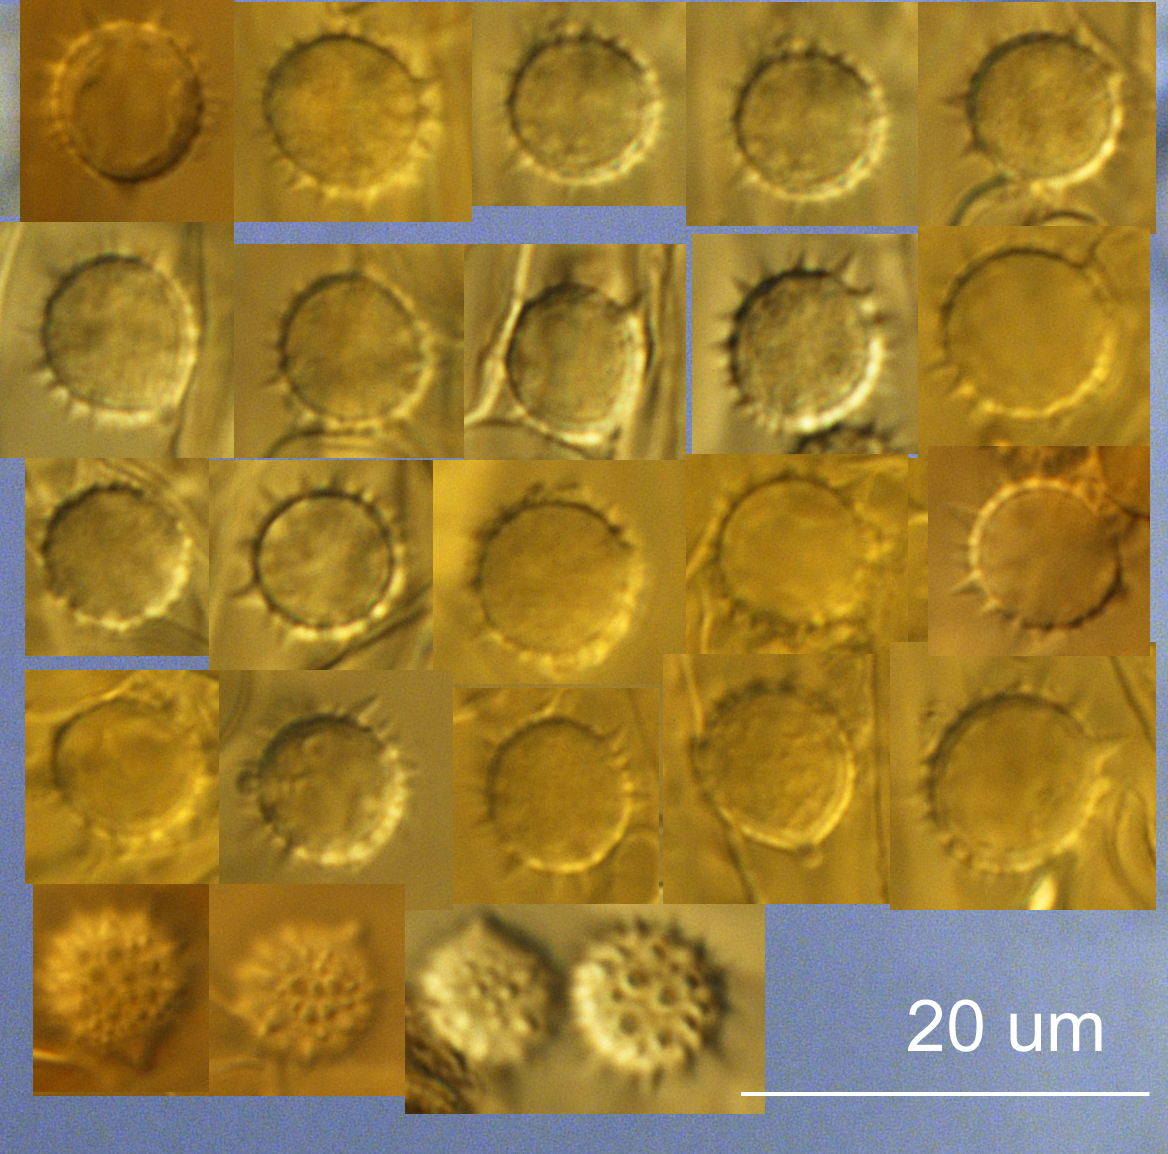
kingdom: Fungi
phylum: Basidiomycota
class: Agaricomycetes
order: Agaricales
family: Hydnangiaceae
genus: Laccaria
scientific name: Laccaria fibrillosa
